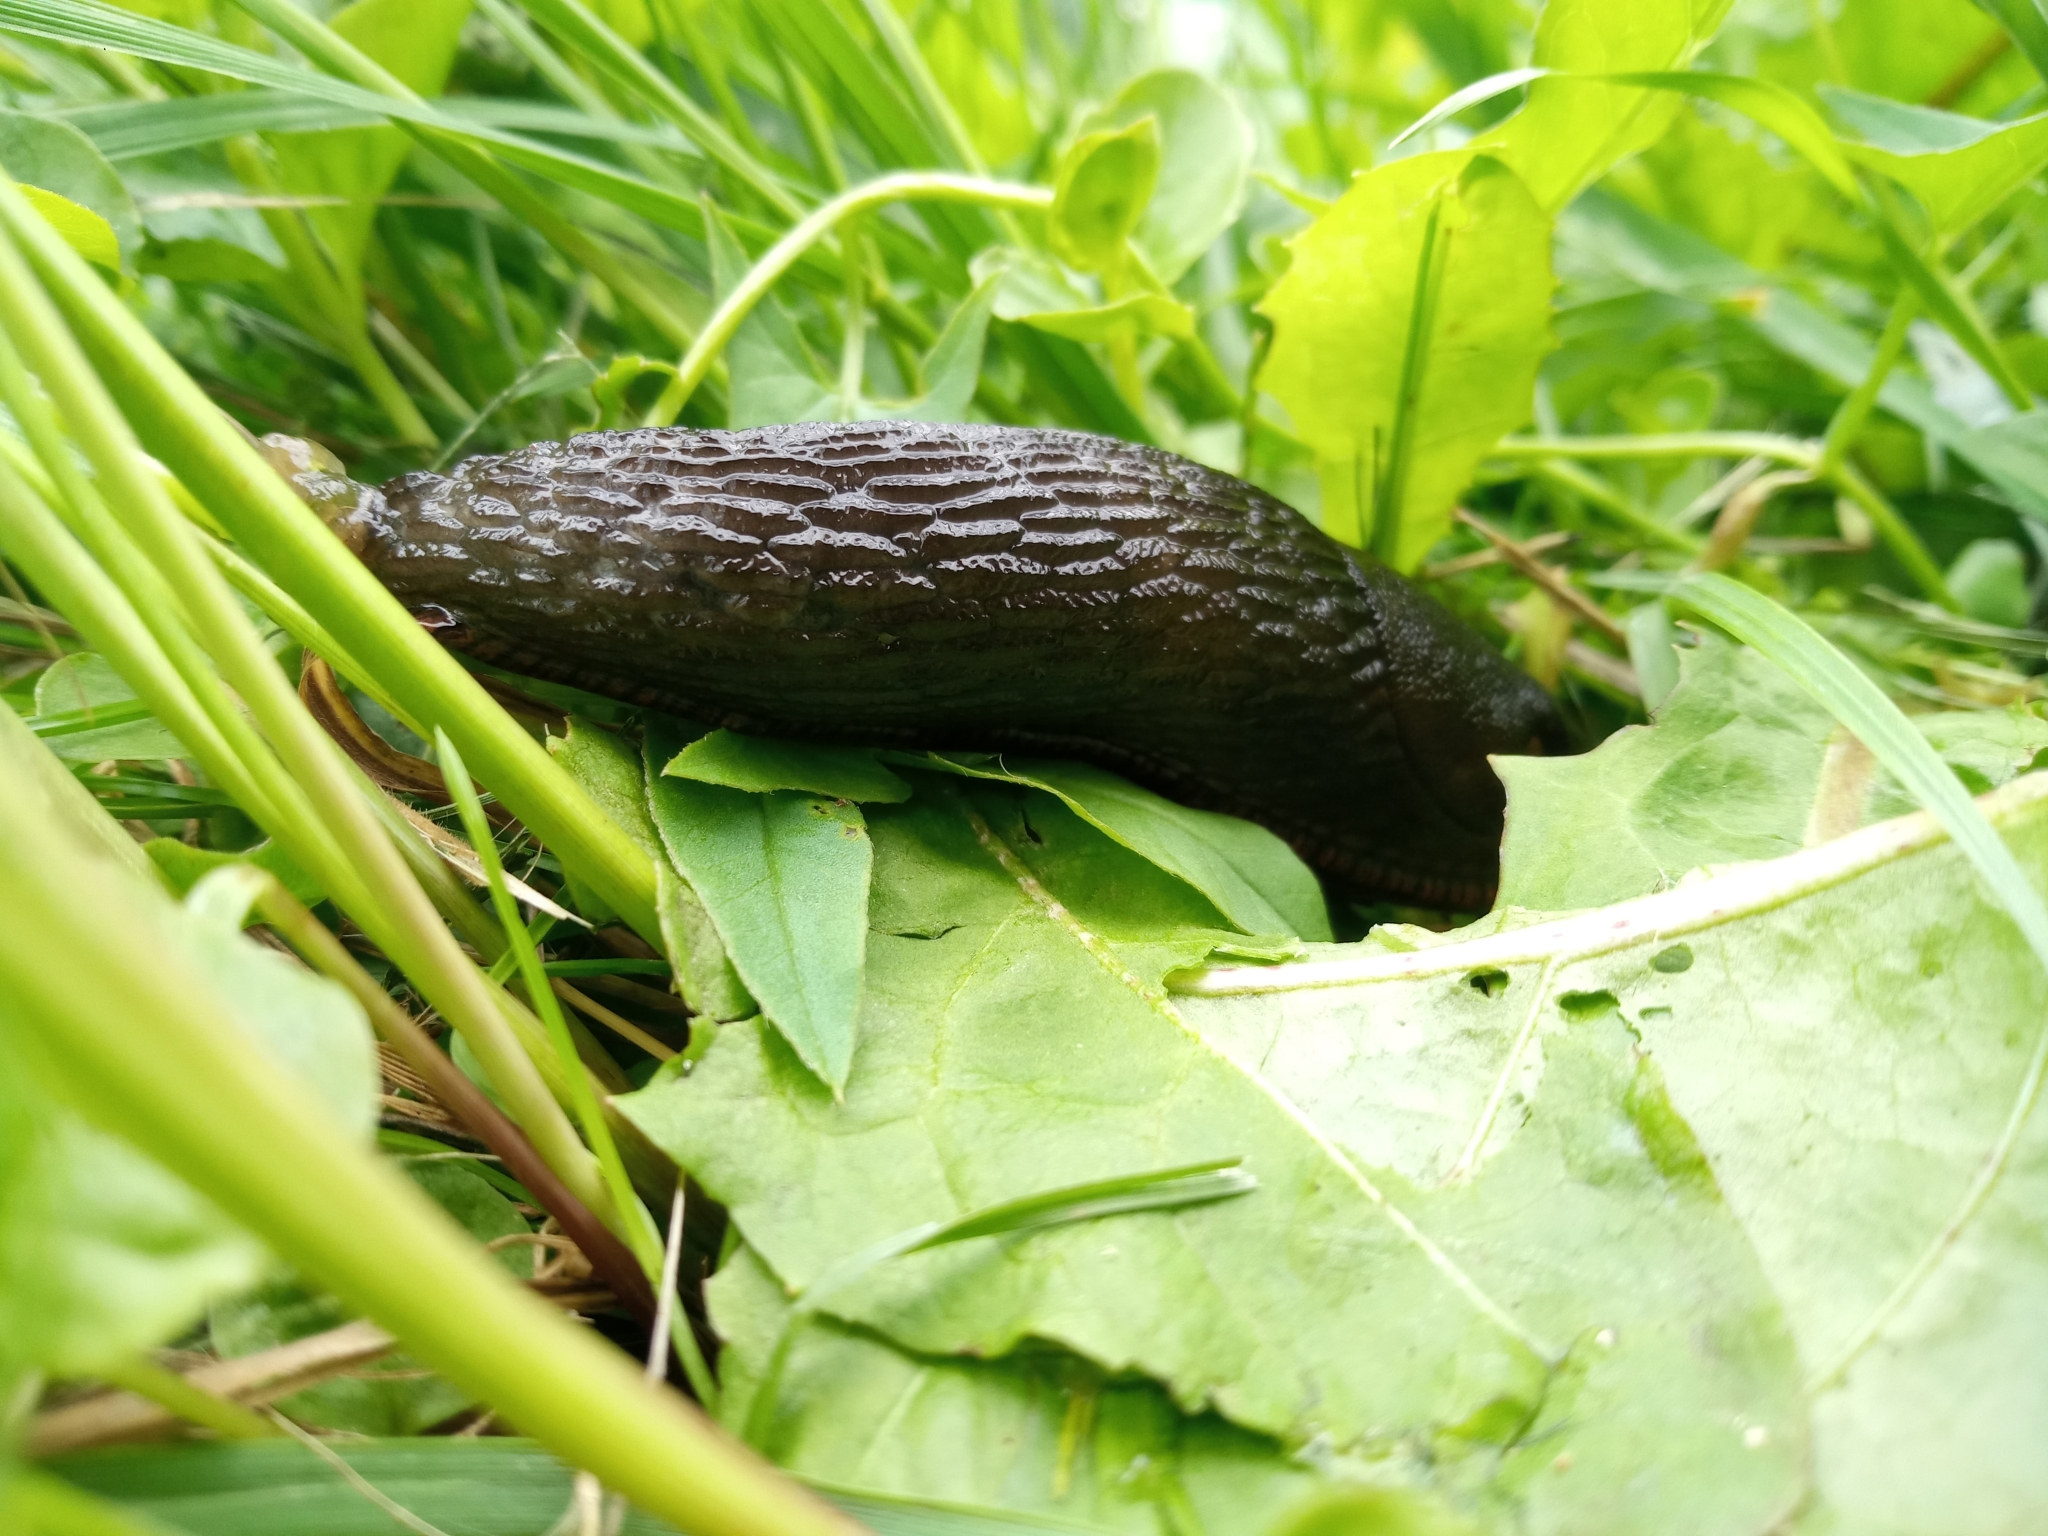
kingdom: Animalia
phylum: Mollusca
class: Gastropoda
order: Stylommatophora
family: Arionidae
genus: Arion
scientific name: Arion
